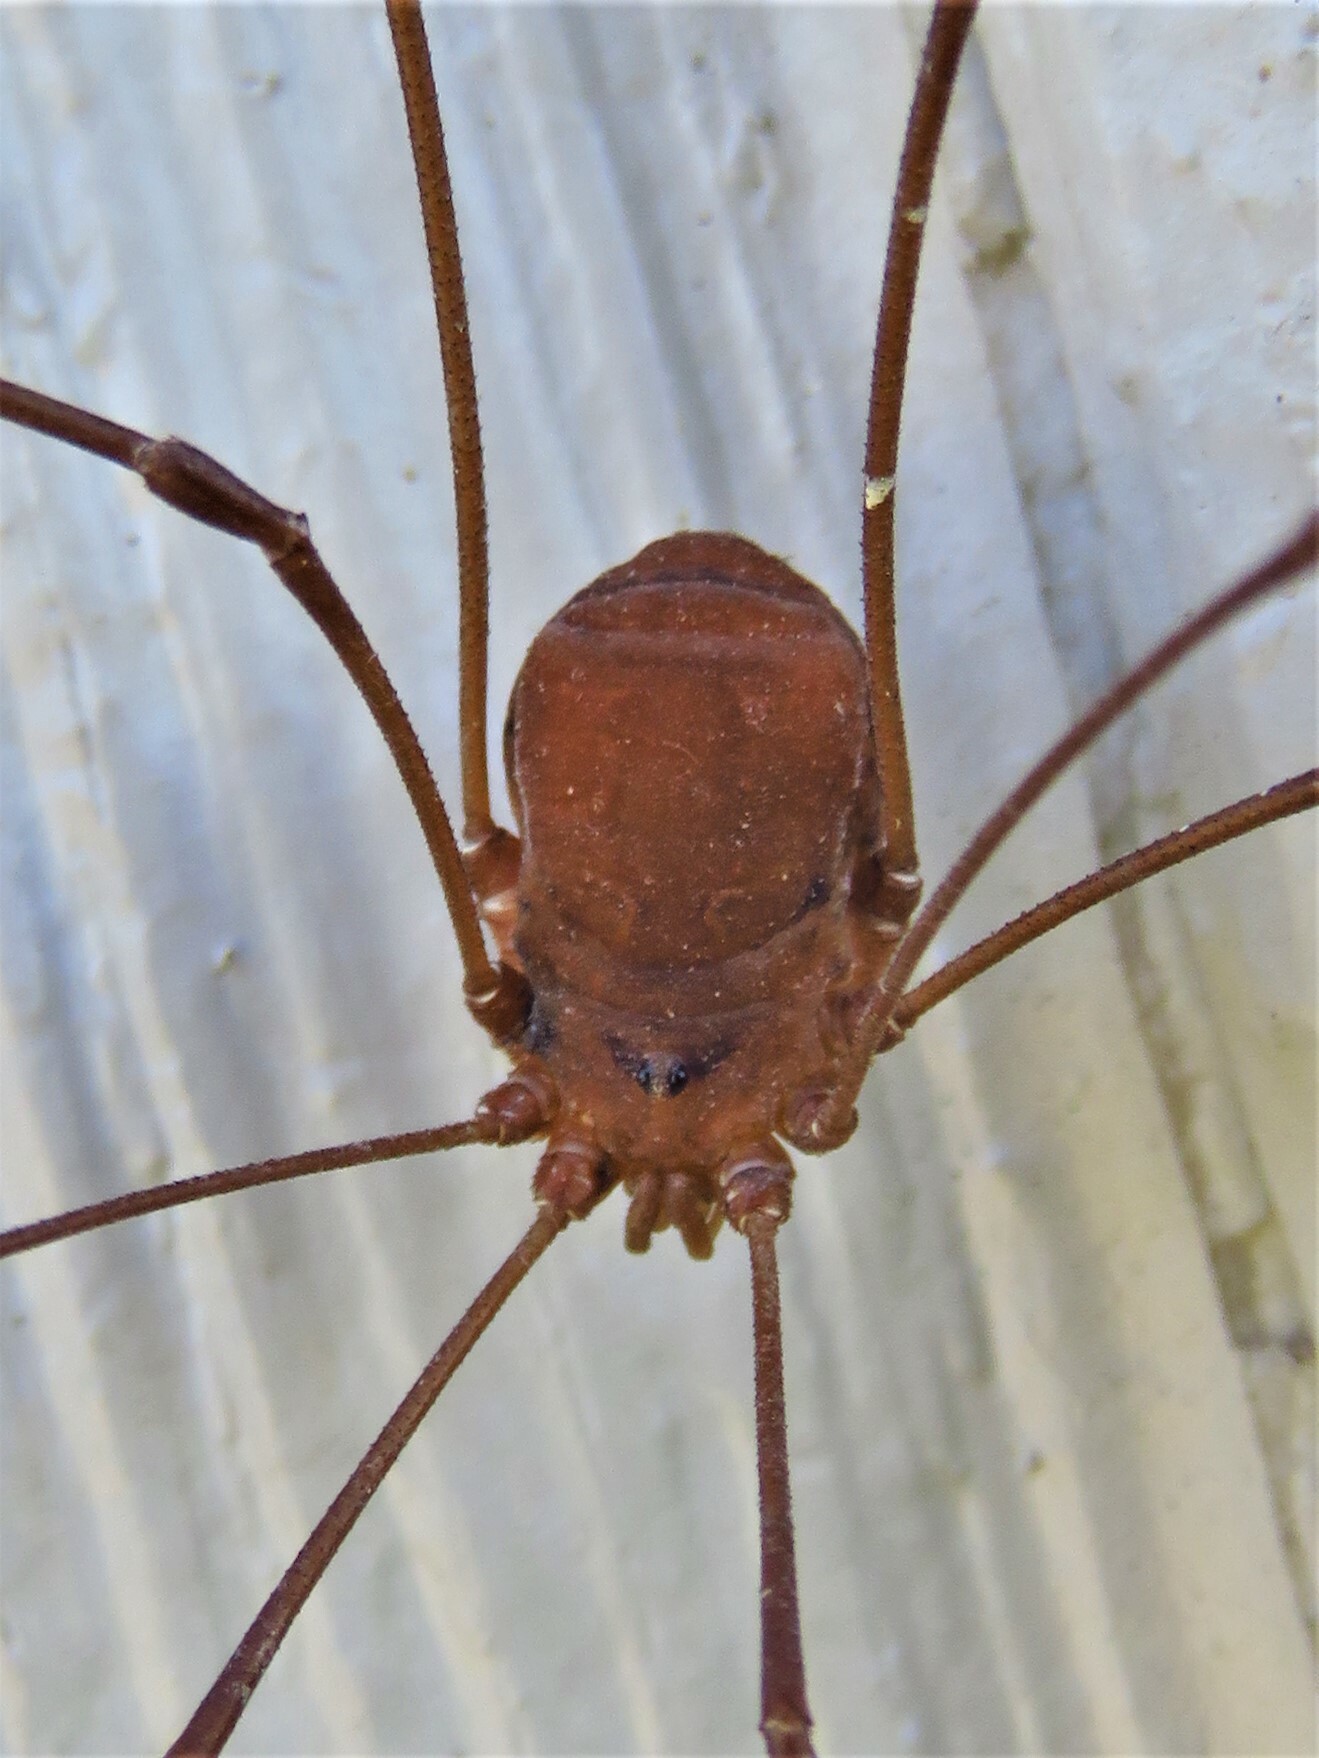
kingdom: Animalia
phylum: Arthropoda
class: Arachnida
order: Opiliones
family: Sclerosomatidae
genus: Leiobunum
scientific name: Leiobunum flavum
